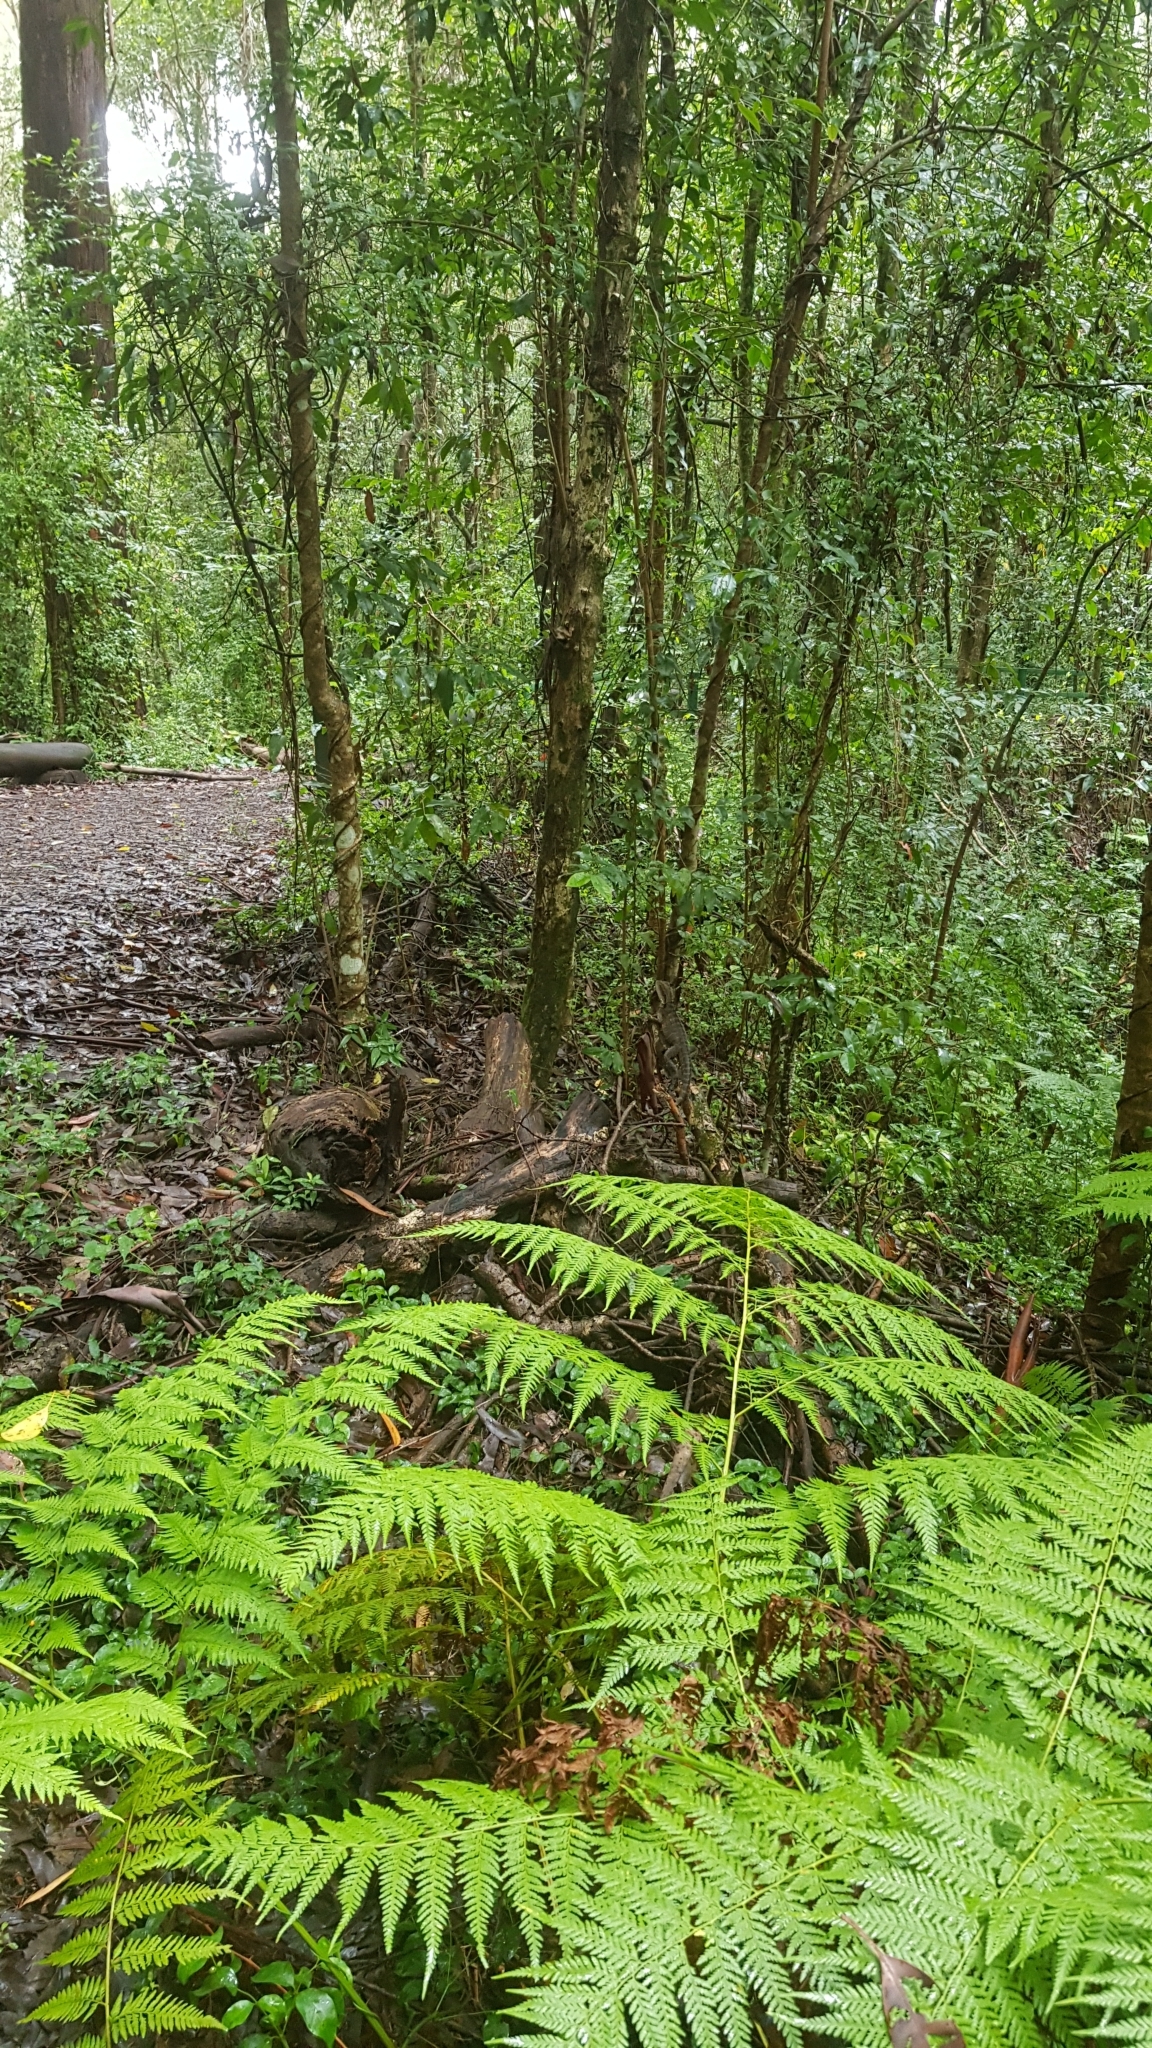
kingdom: Animalia
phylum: Chordata
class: Squamata
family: Agamidae
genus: Intellagama
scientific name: Intellagama lesueurii
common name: Eastern water dragon
